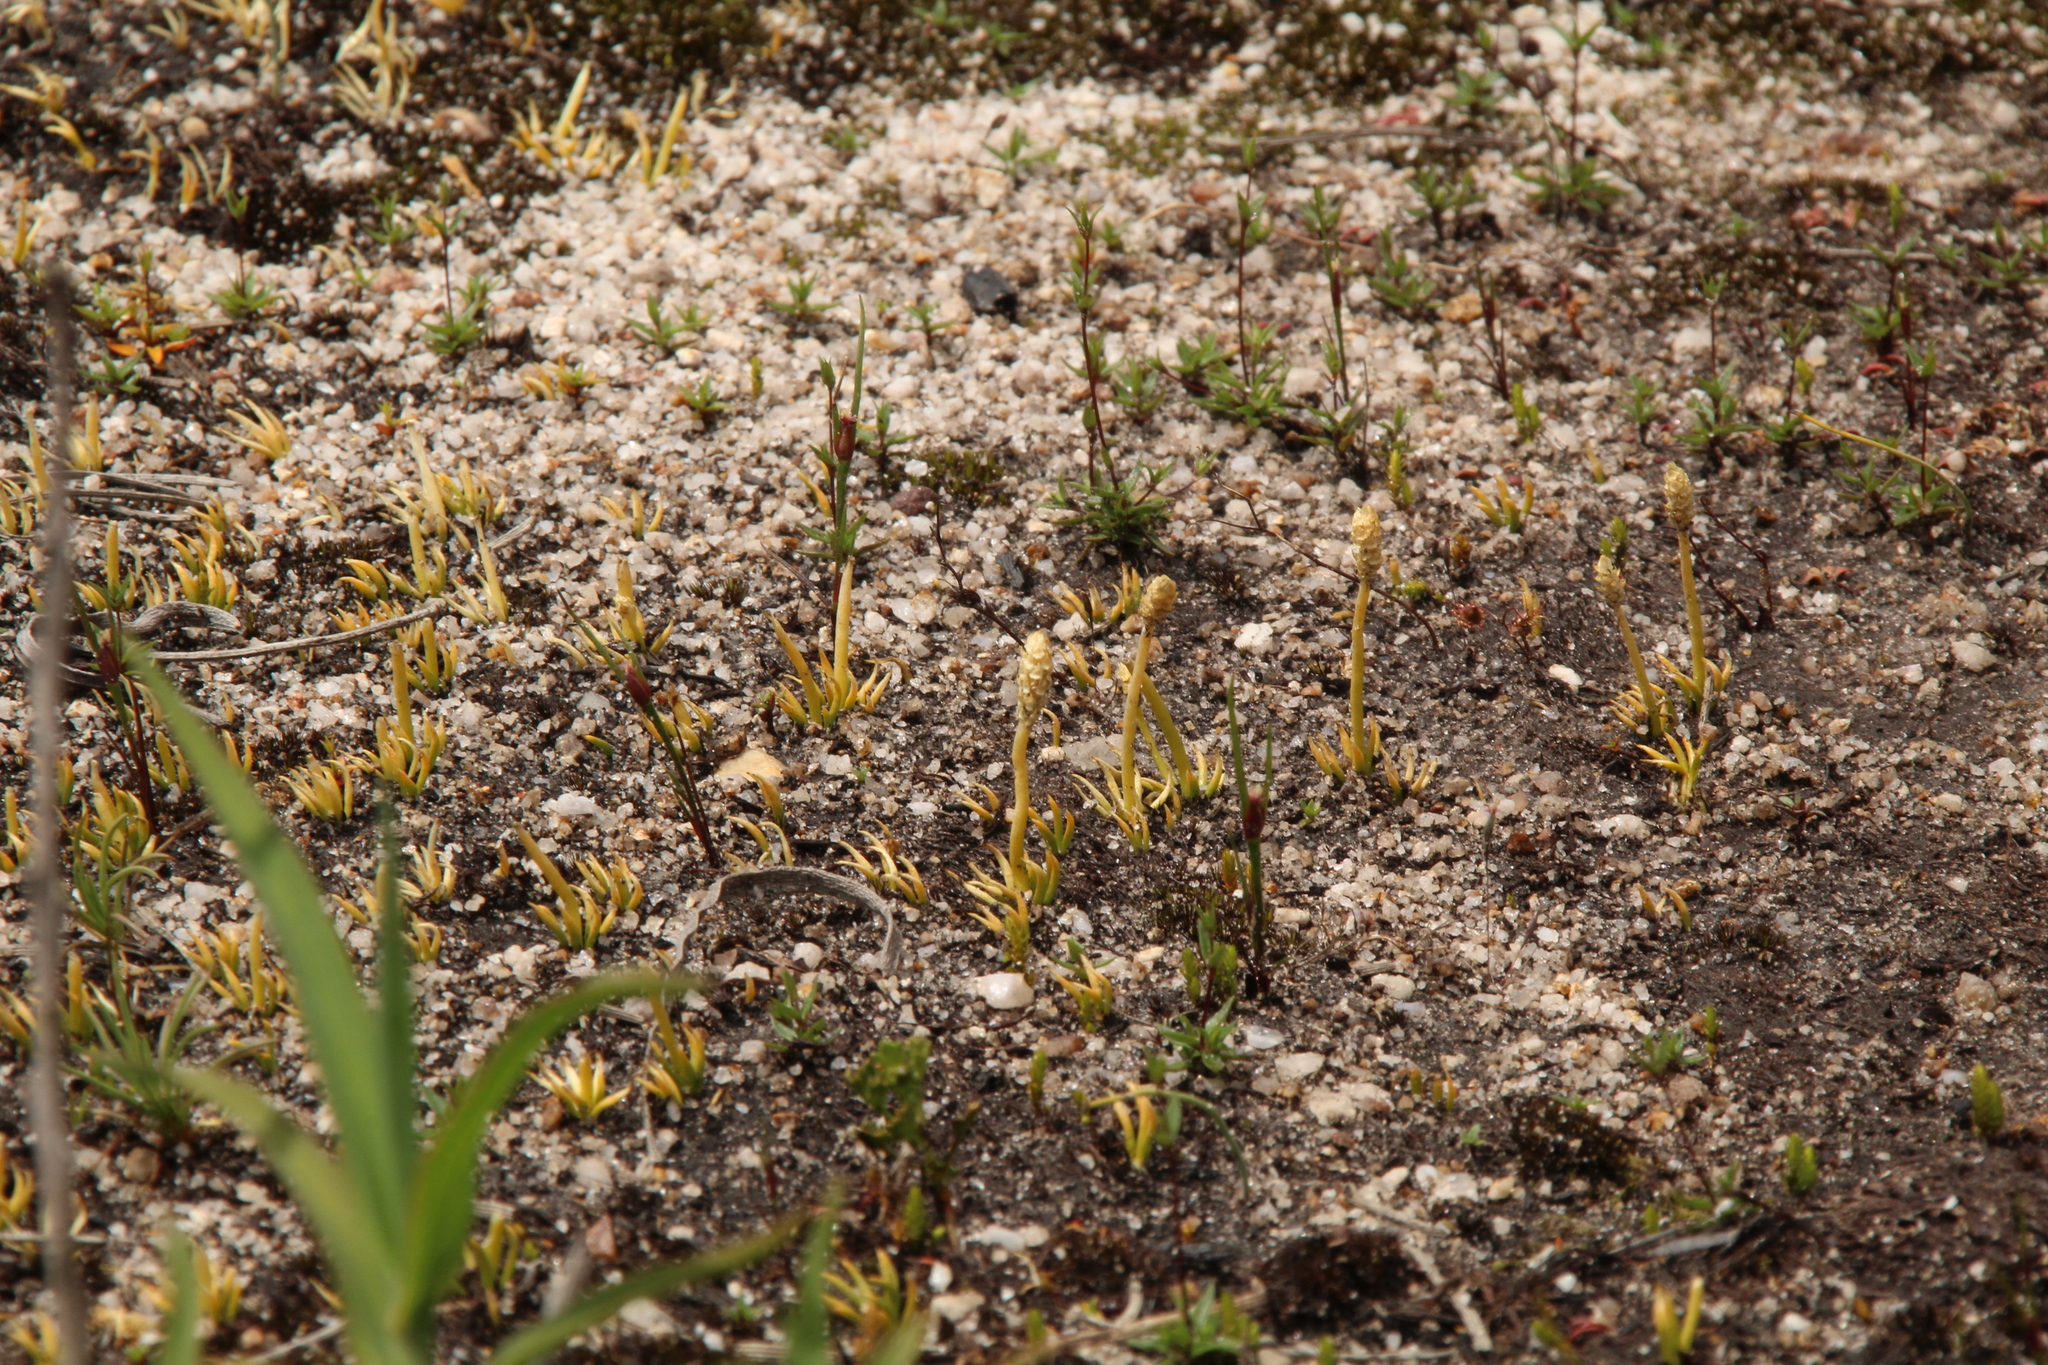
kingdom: Plantae
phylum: Tracheophyta
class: Lycopodiopsida
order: Lycopodiales
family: Lycopodiaceae
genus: Phylloglossum
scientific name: Phylloglossum drummondii
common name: Pigmy-club-moss
